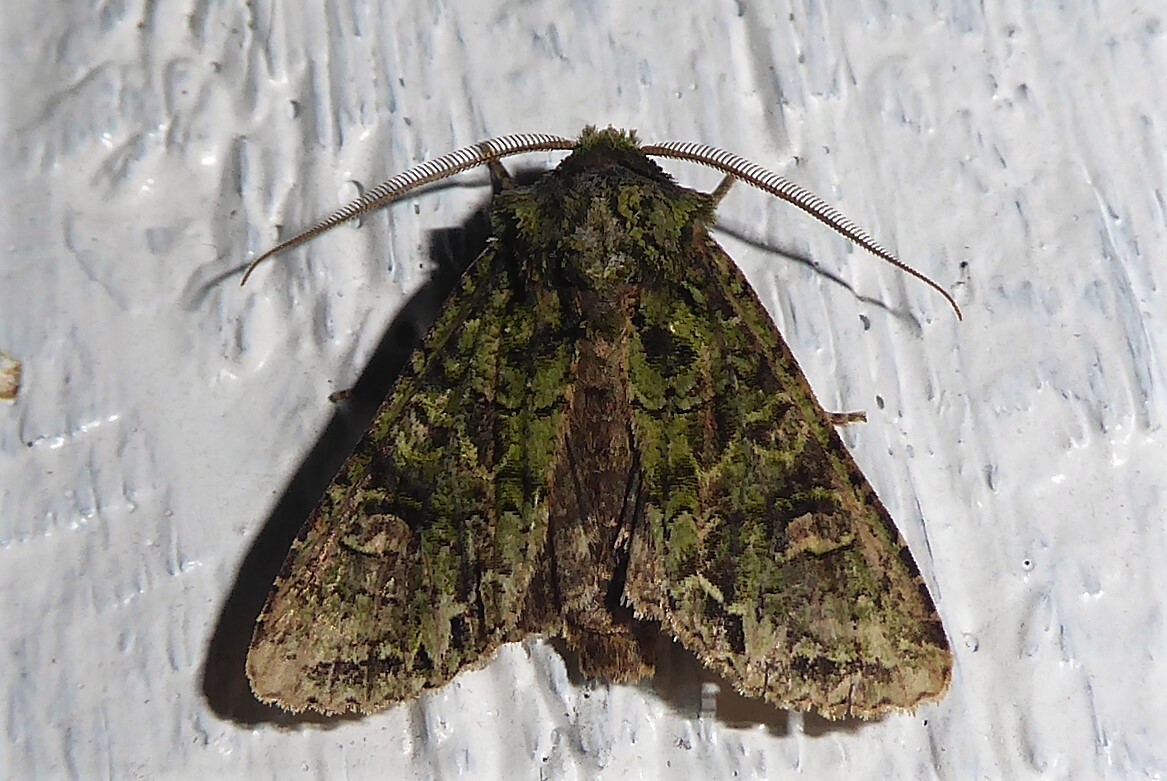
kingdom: Animalia
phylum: Arthropoda
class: Insecta
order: Lepidoptera
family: Noctuidae
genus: Ichneutica
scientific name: Ichneutica
